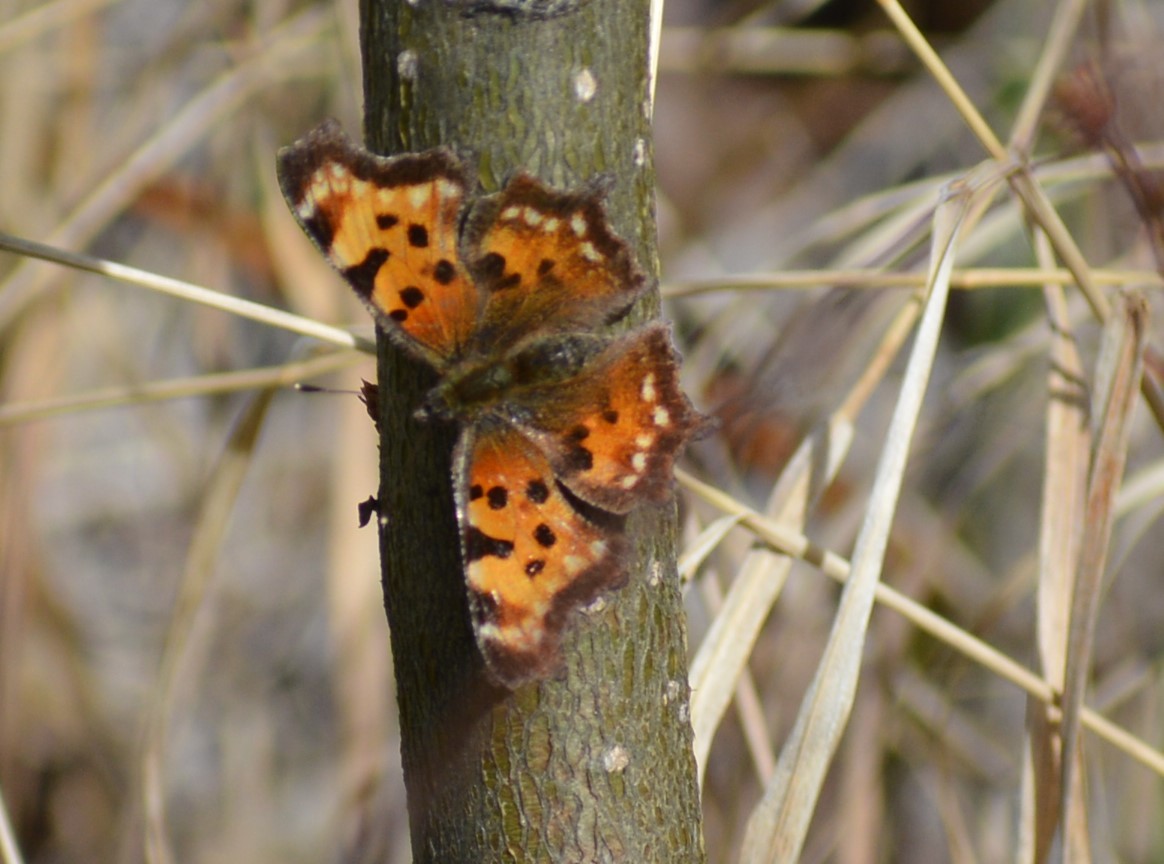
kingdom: Animalia
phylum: Arthropoda
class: Insecta
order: Lepidoptera
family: Nymphalidae
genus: Polygonia
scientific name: Polygonia faunus
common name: Green comma
